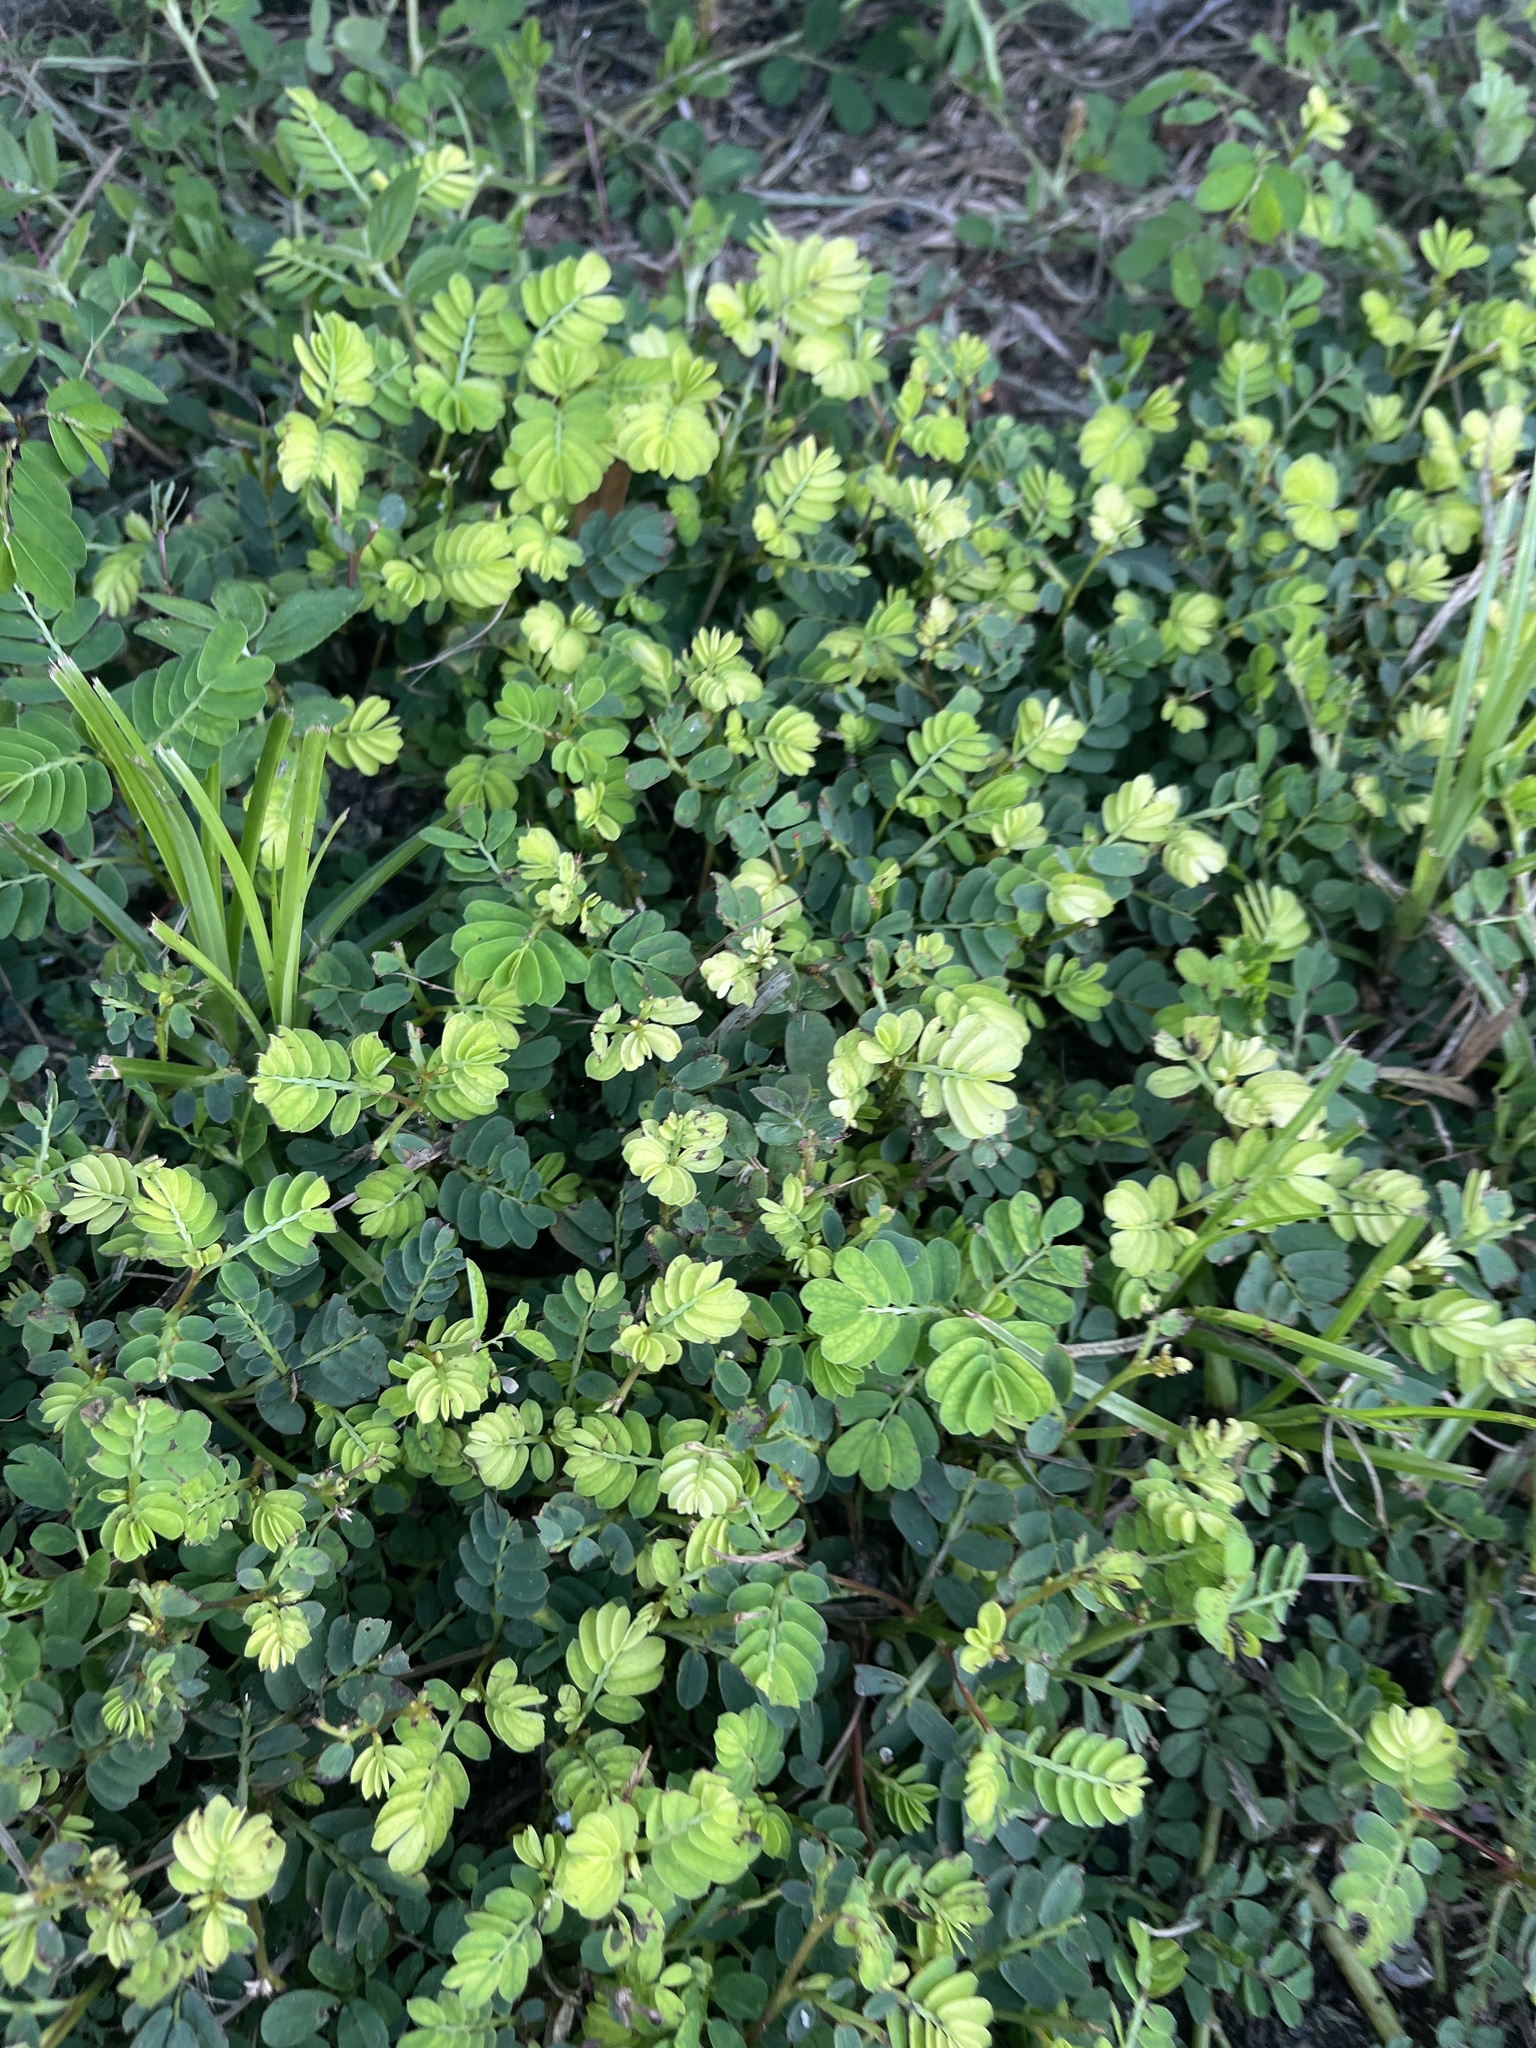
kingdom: Plantae
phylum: Tracheophyta
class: Magnoliopsida
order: Malpighiales
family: Phyllanthaceae
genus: Phyllanthus
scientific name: Phyllanthus urinaria
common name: Chamber bitter
